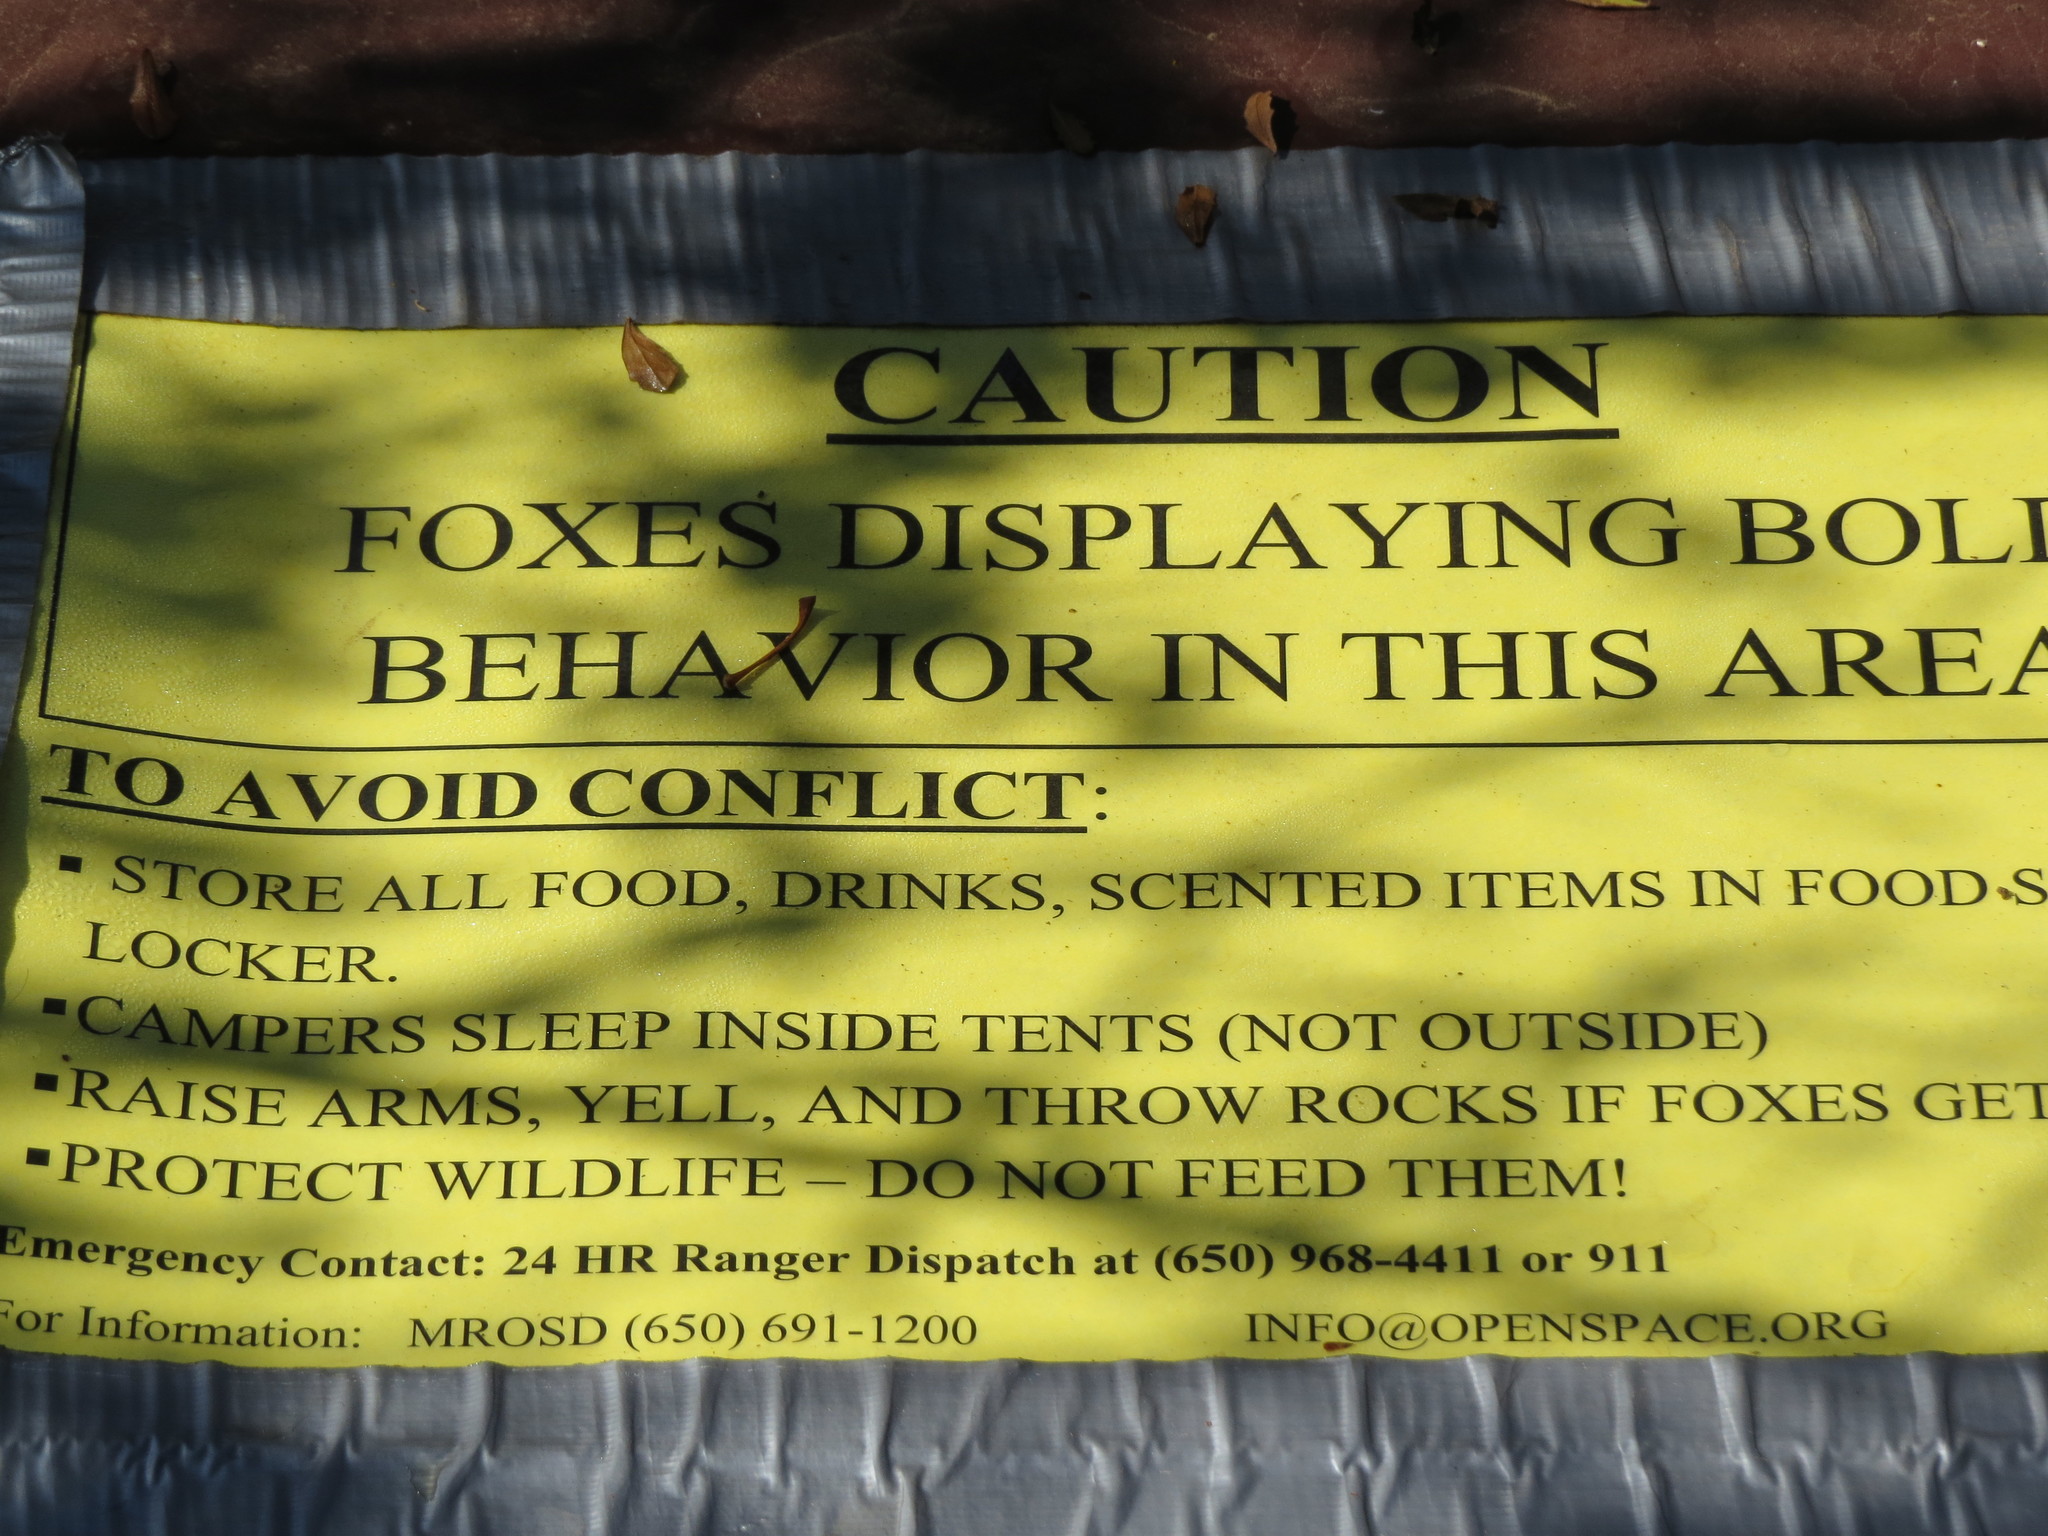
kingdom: Animalia
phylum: Chordata
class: Mammalia
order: Carnivora
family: Canidae
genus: Urocyon
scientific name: Urocyon cinereoargenteus
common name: Gray fox
